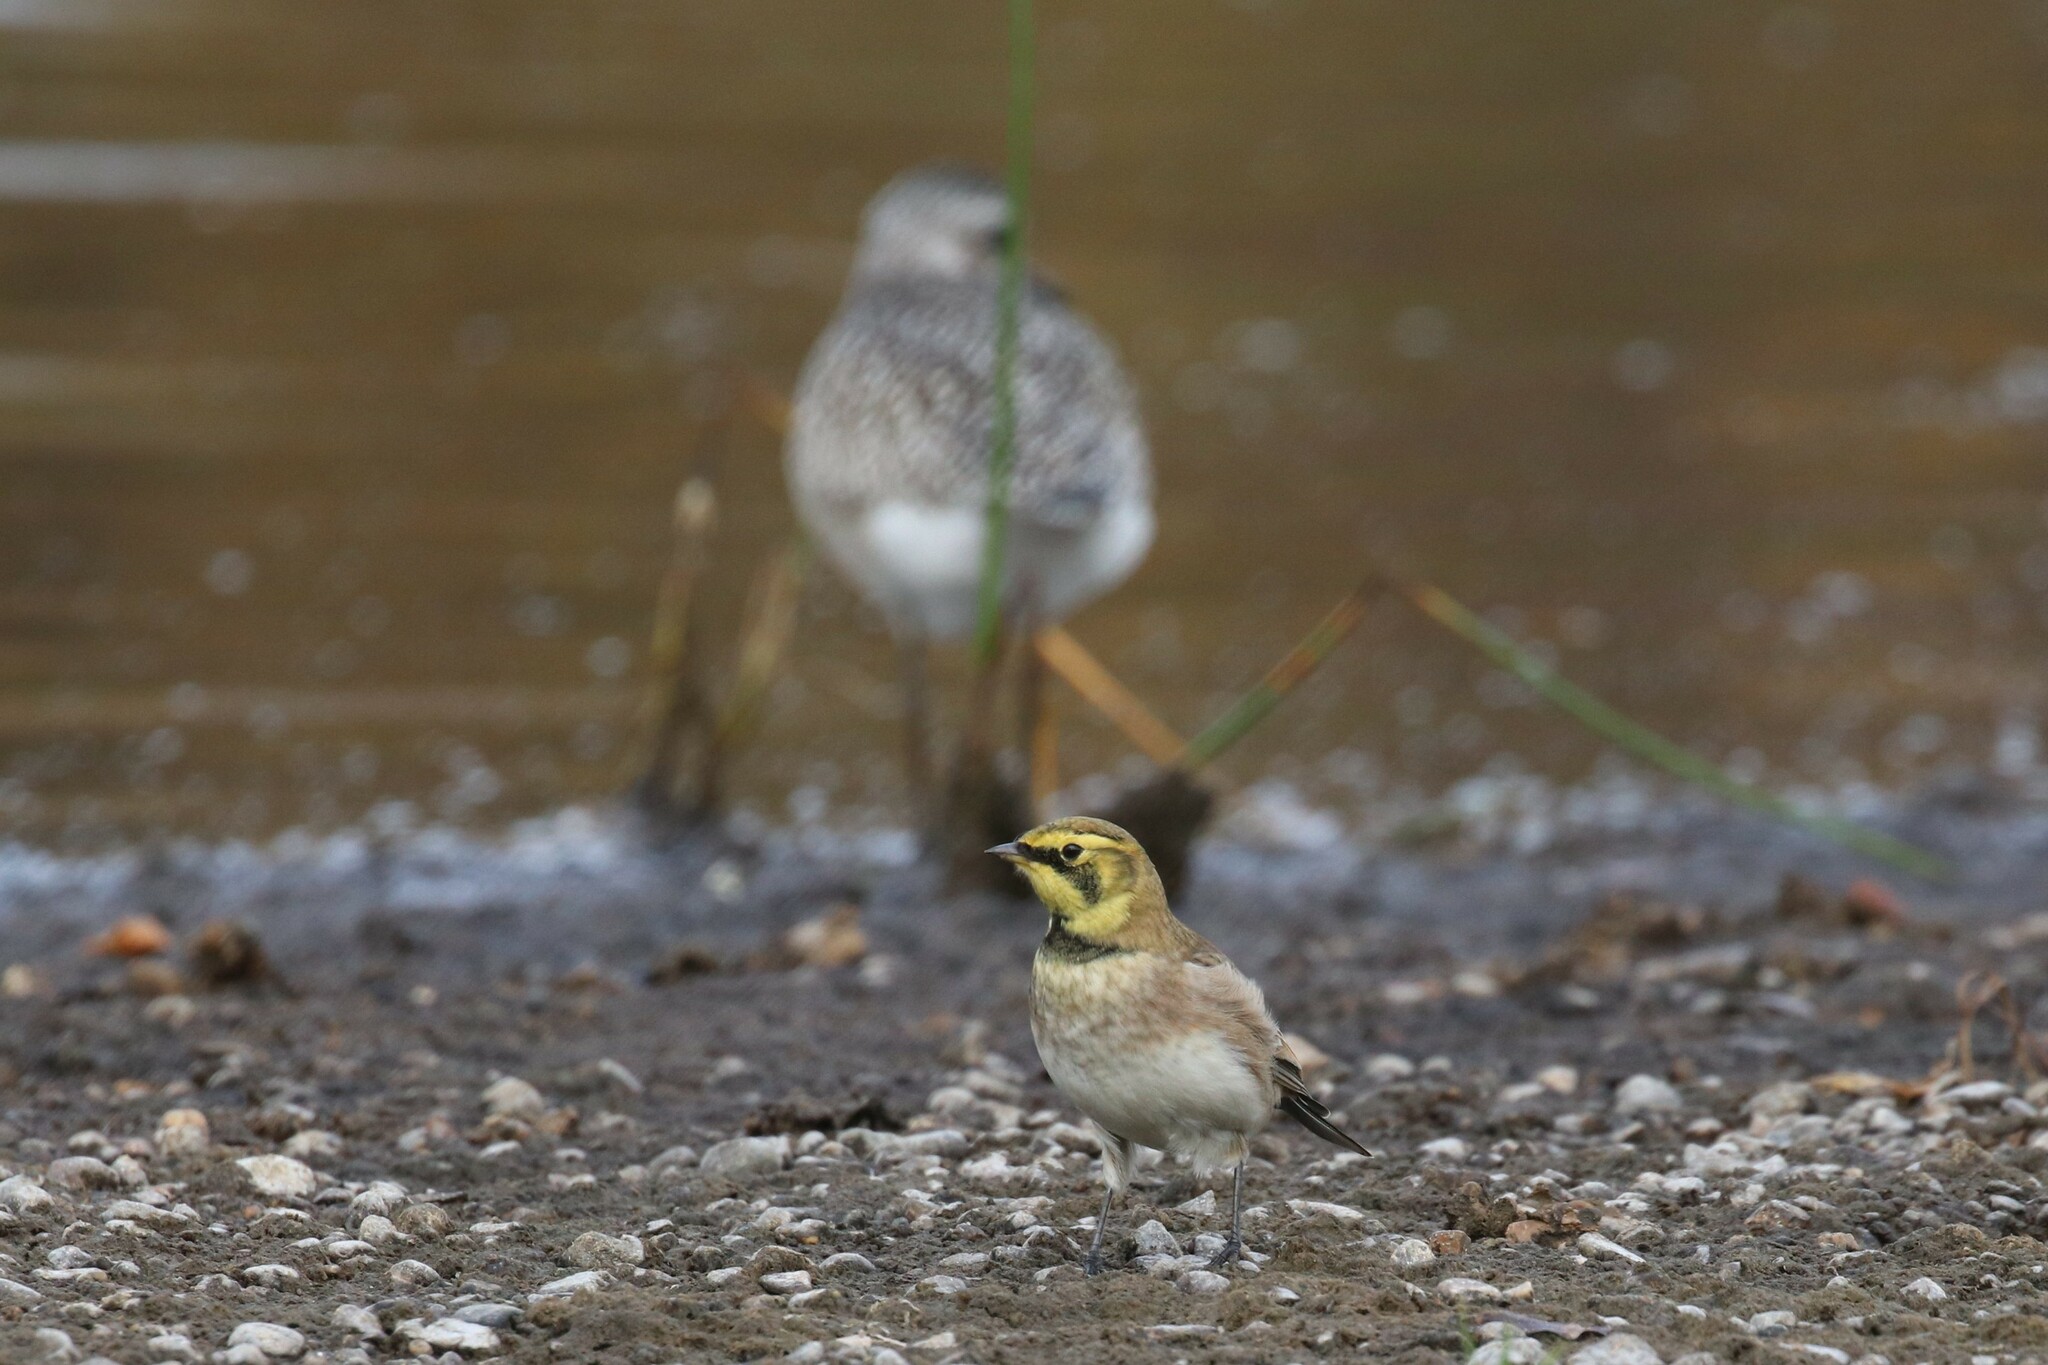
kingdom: Animalia
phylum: Chordata
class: Aves
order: Passeriformes
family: Alaudidae
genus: Eremophila
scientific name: Eremophila alpestris
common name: Horned lark
